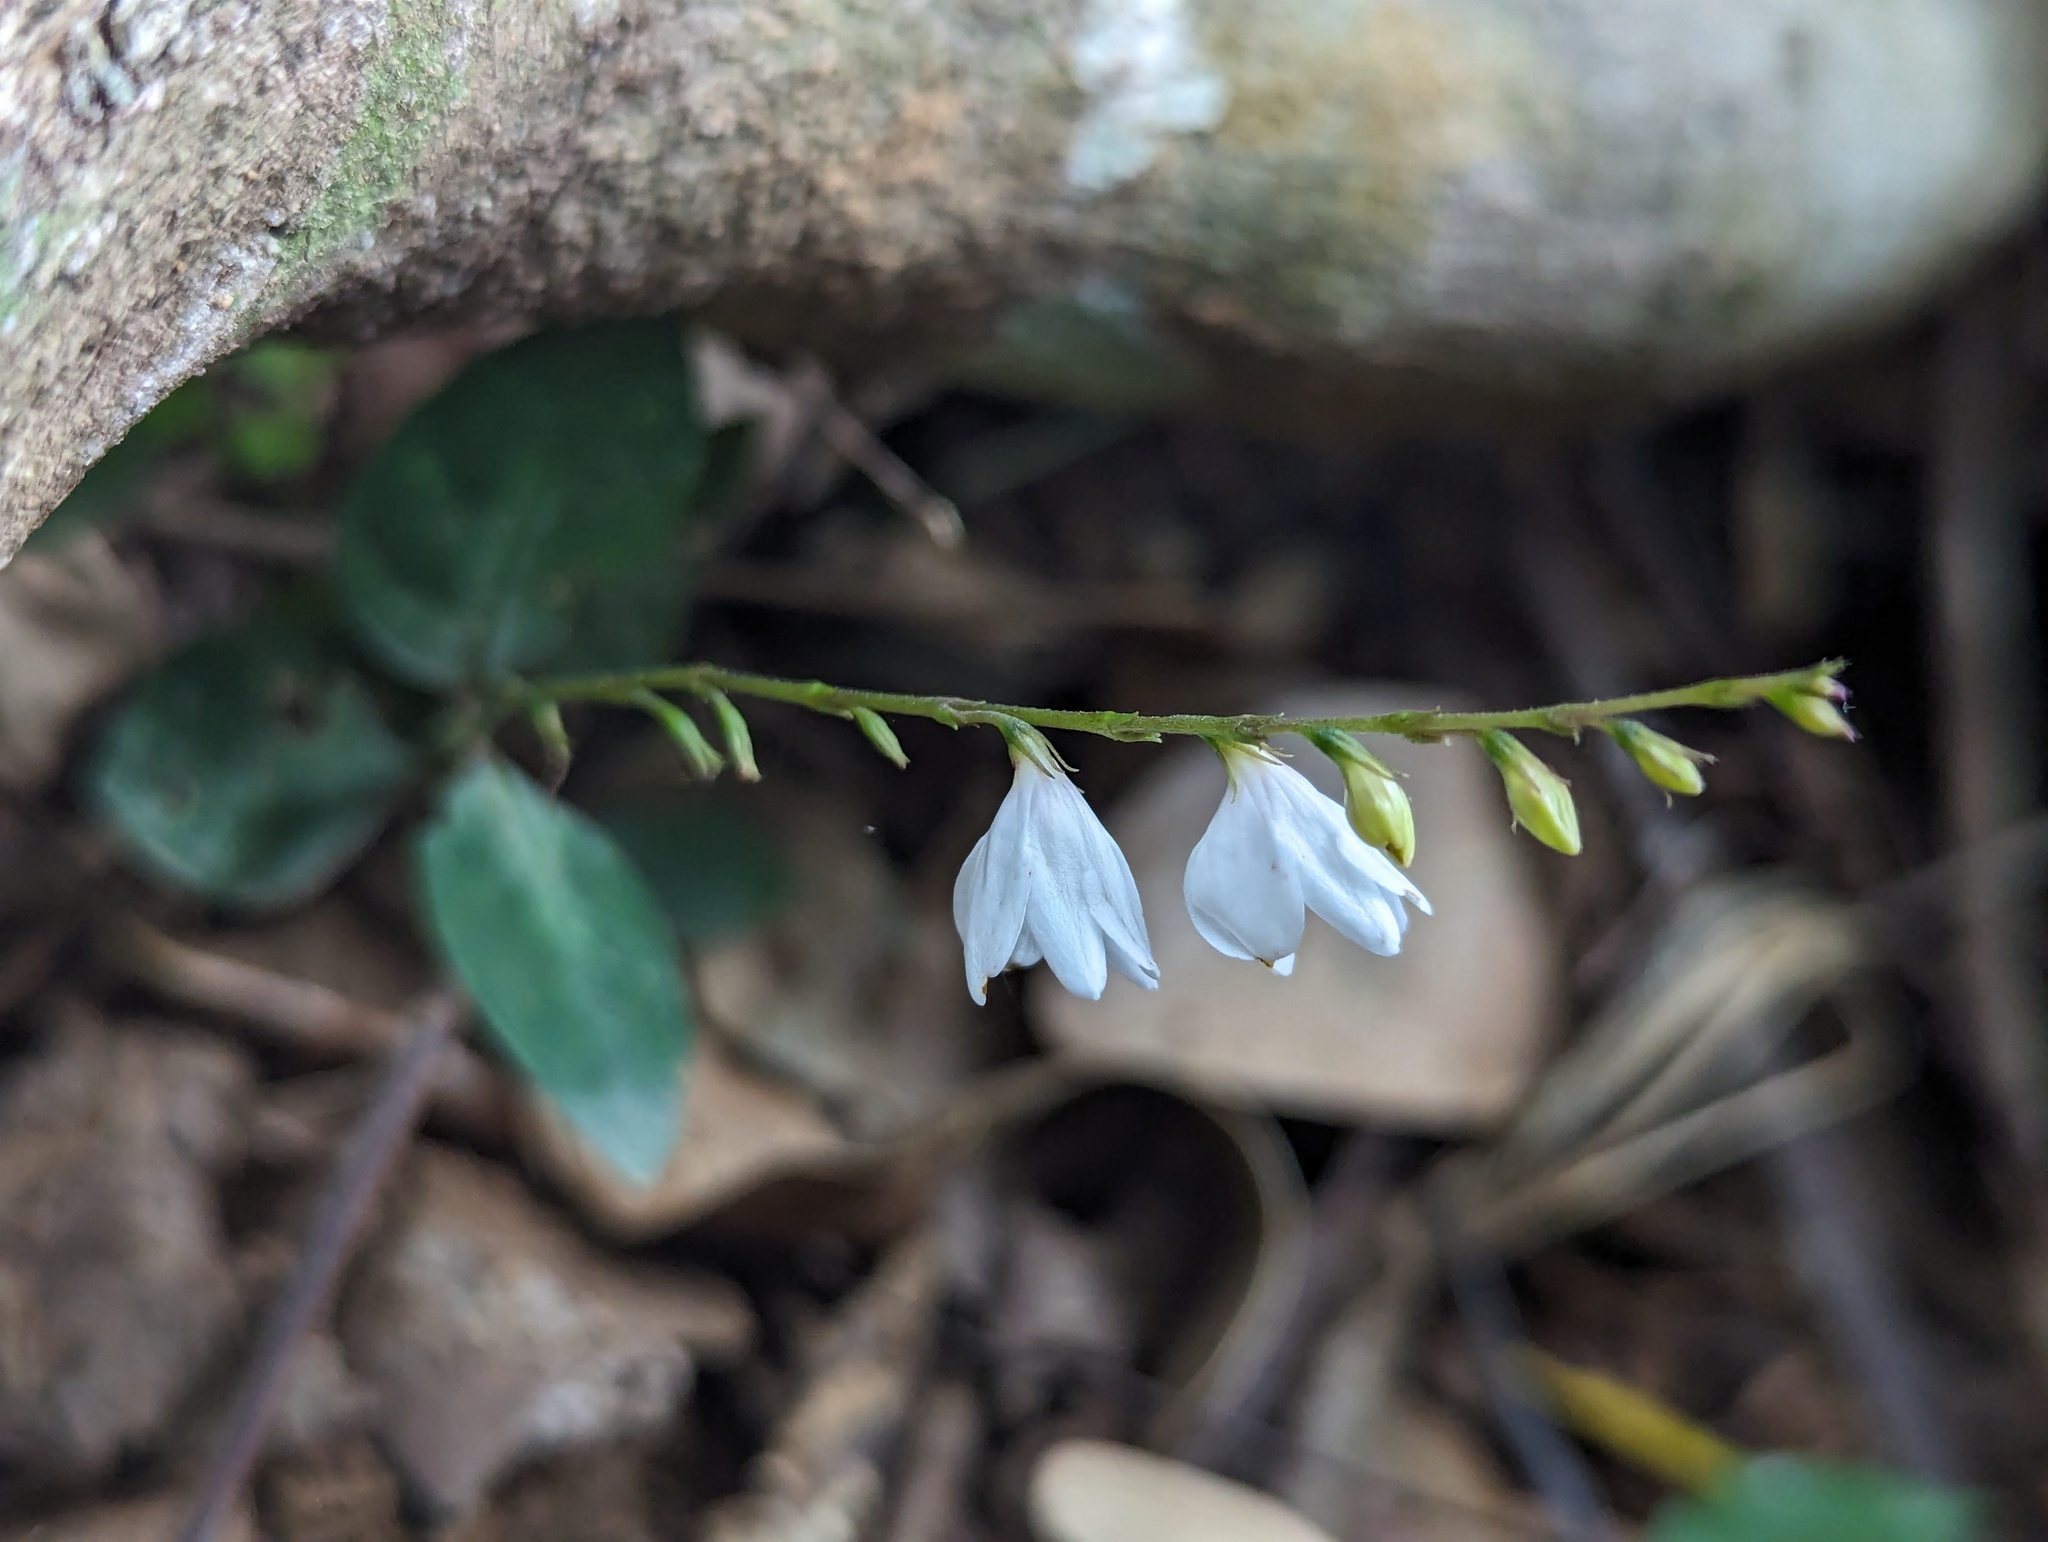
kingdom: Plantae
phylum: Tracheophyta
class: Magnoliopsida
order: Lamiales
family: Acanthaceae
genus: Codonacanthus
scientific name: Codonacanthus pauciflorus
